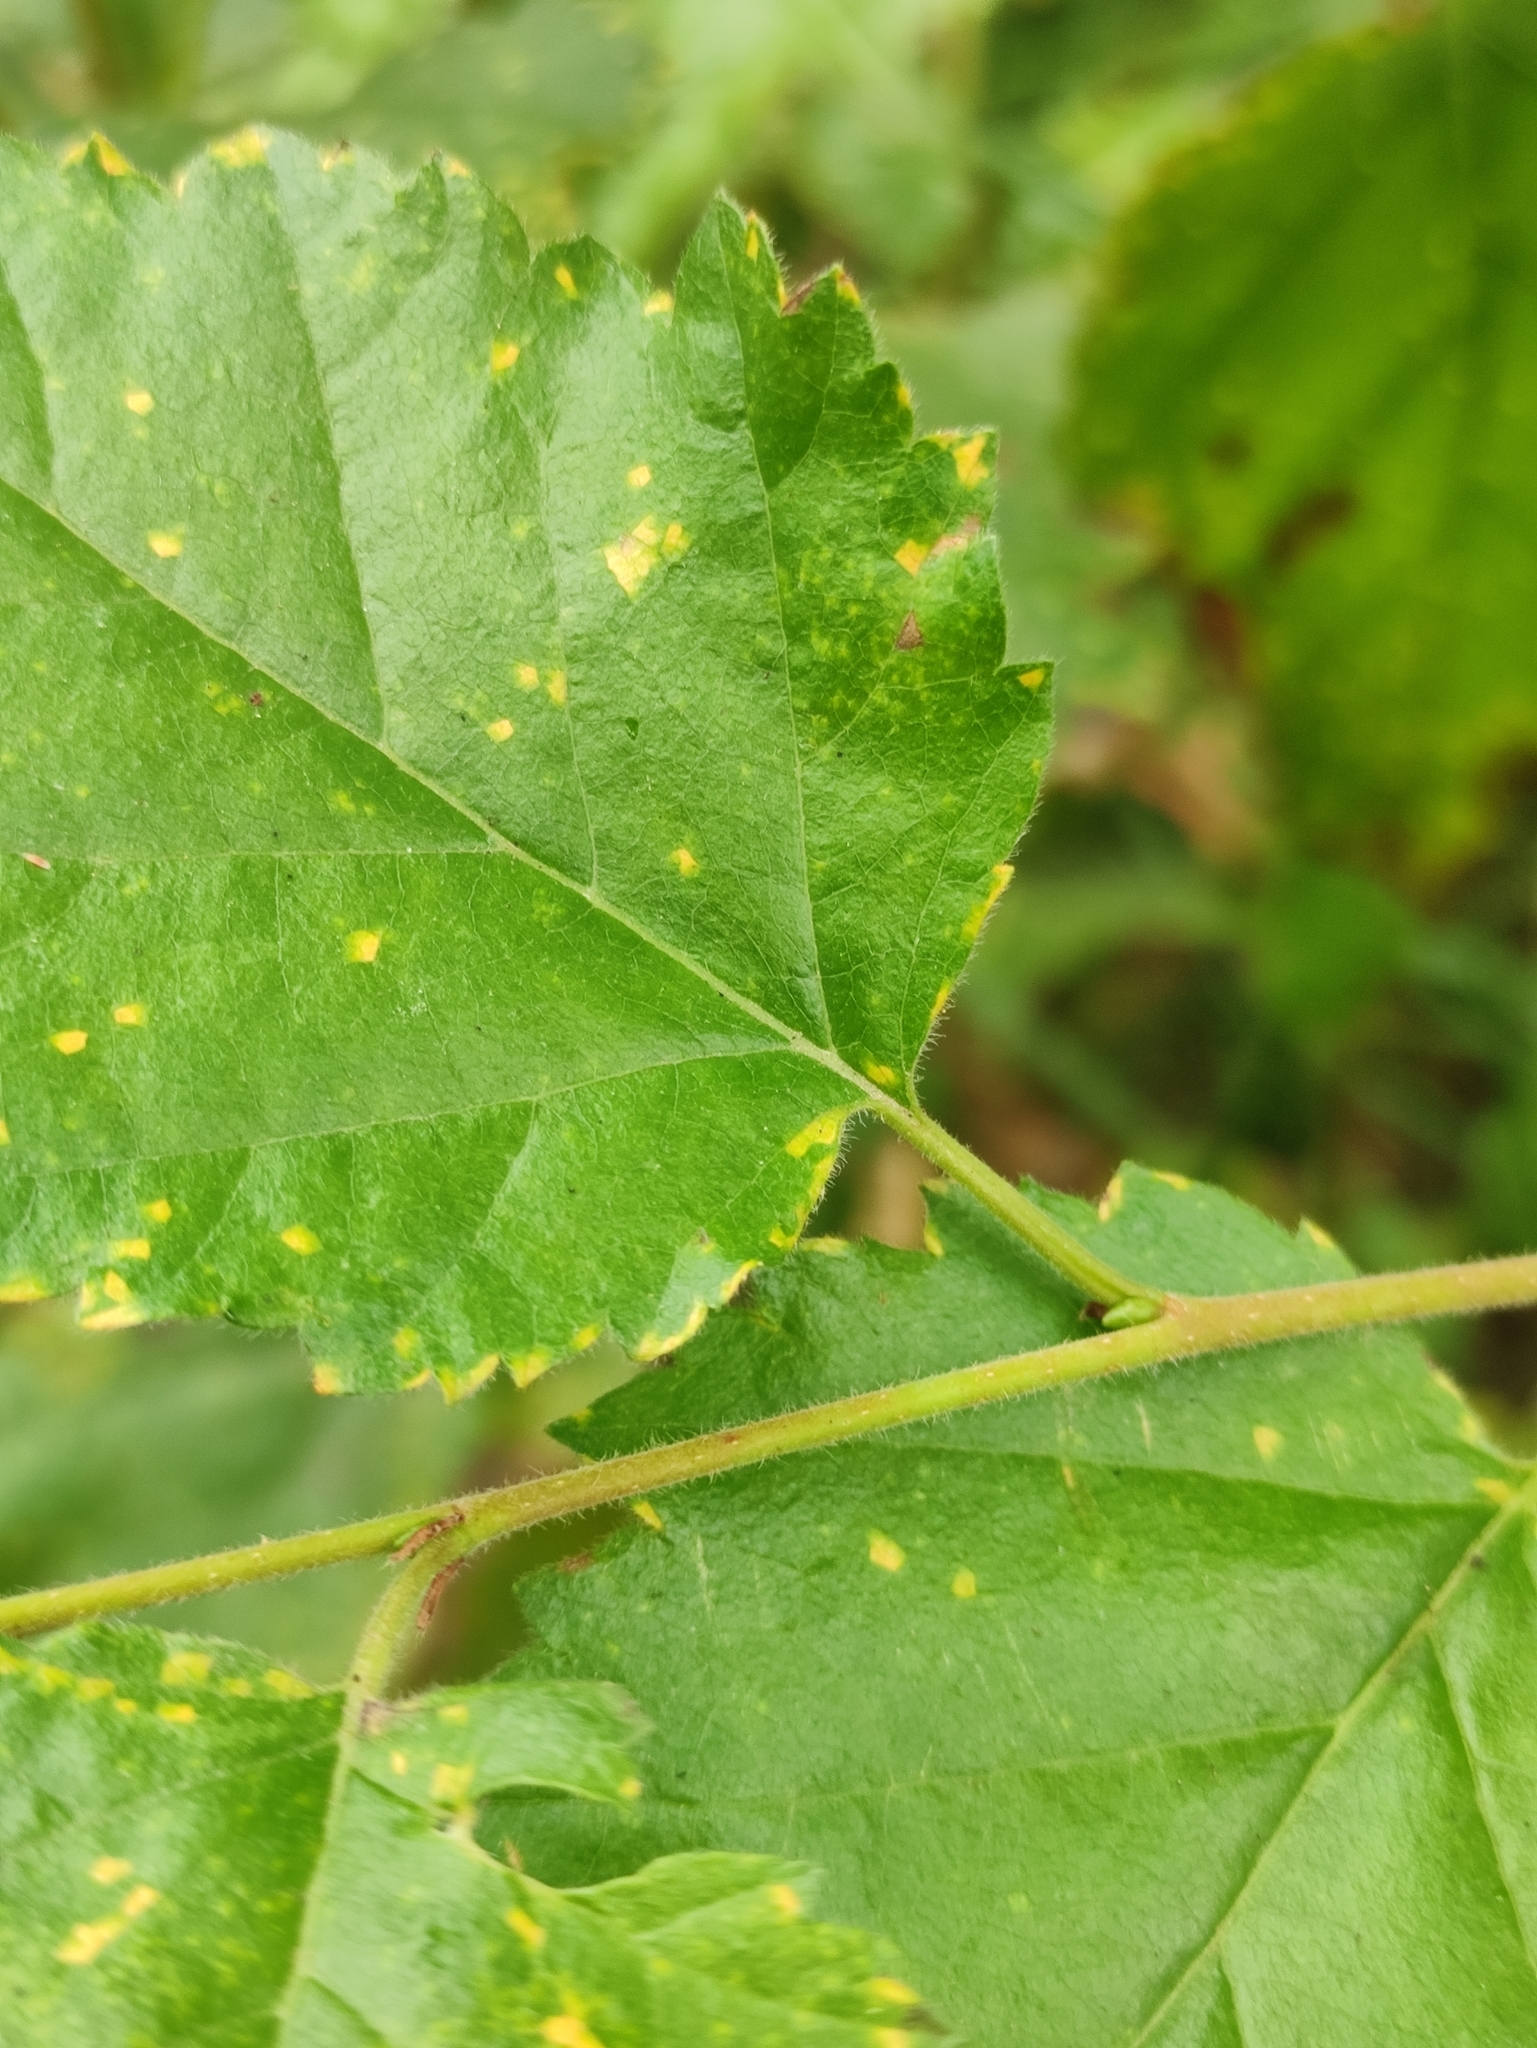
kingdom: Plantae
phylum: Tracheophyta
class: Magnoliopsida
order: Fagales
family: Betulaceae
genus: Betula
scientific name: Betula pubescens
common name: Downy birch
